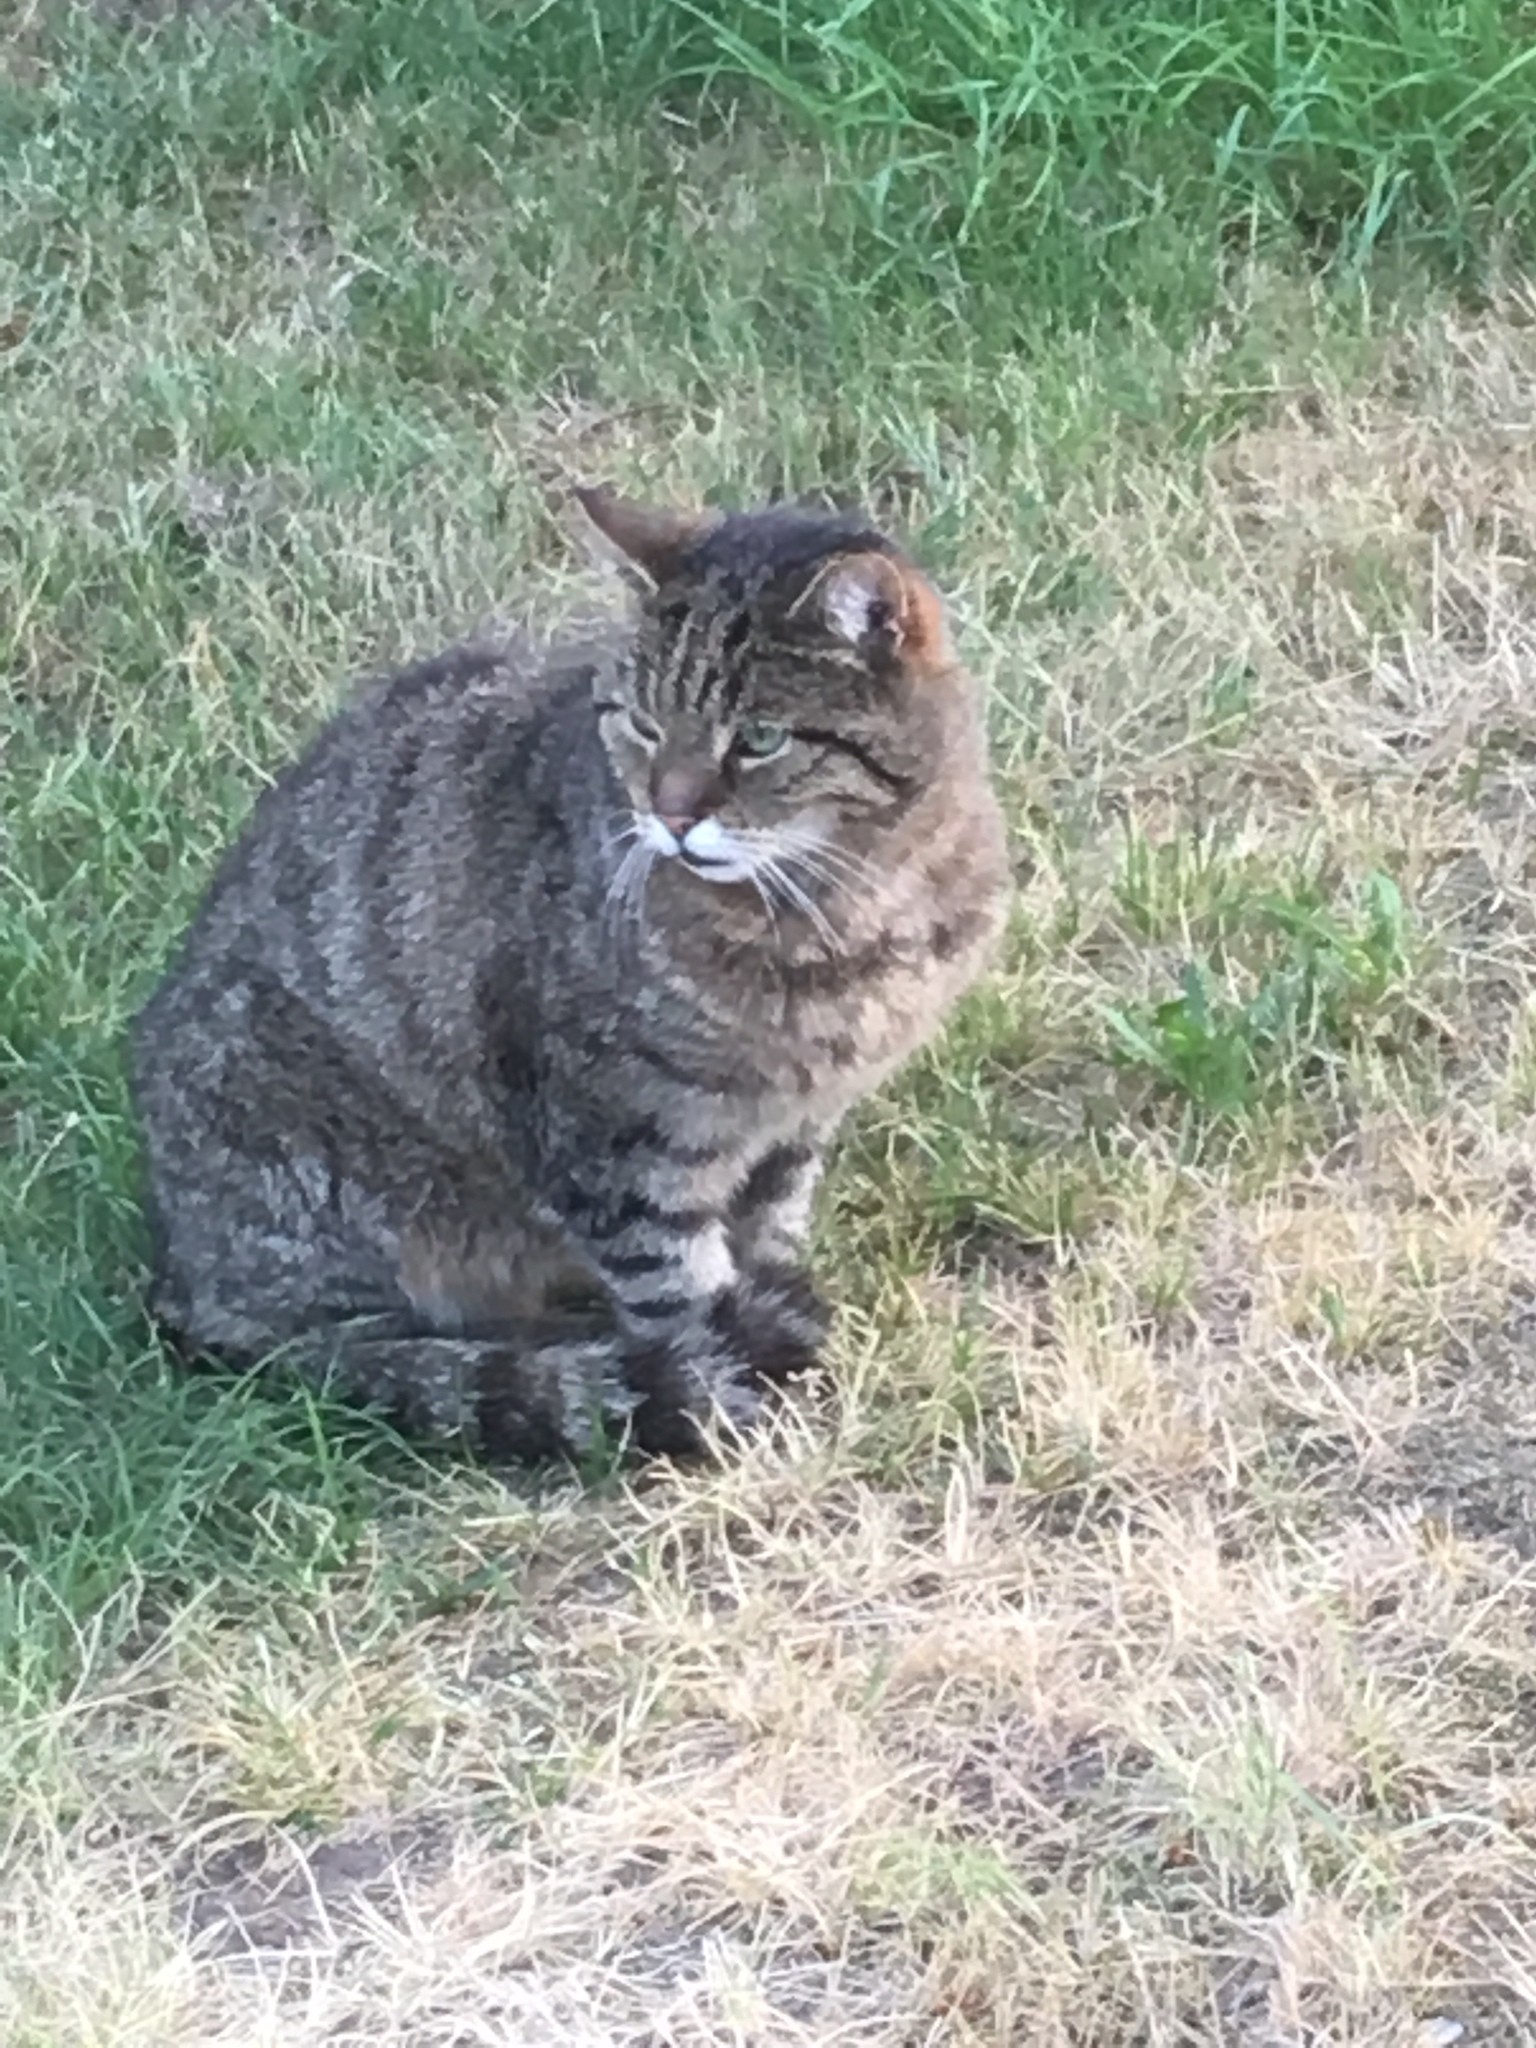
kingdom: Animalia
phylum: Chordata
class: Mammalia
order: Carnivora
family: Felidae
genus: Felis
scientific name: Felis catus
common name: Domestic cat
